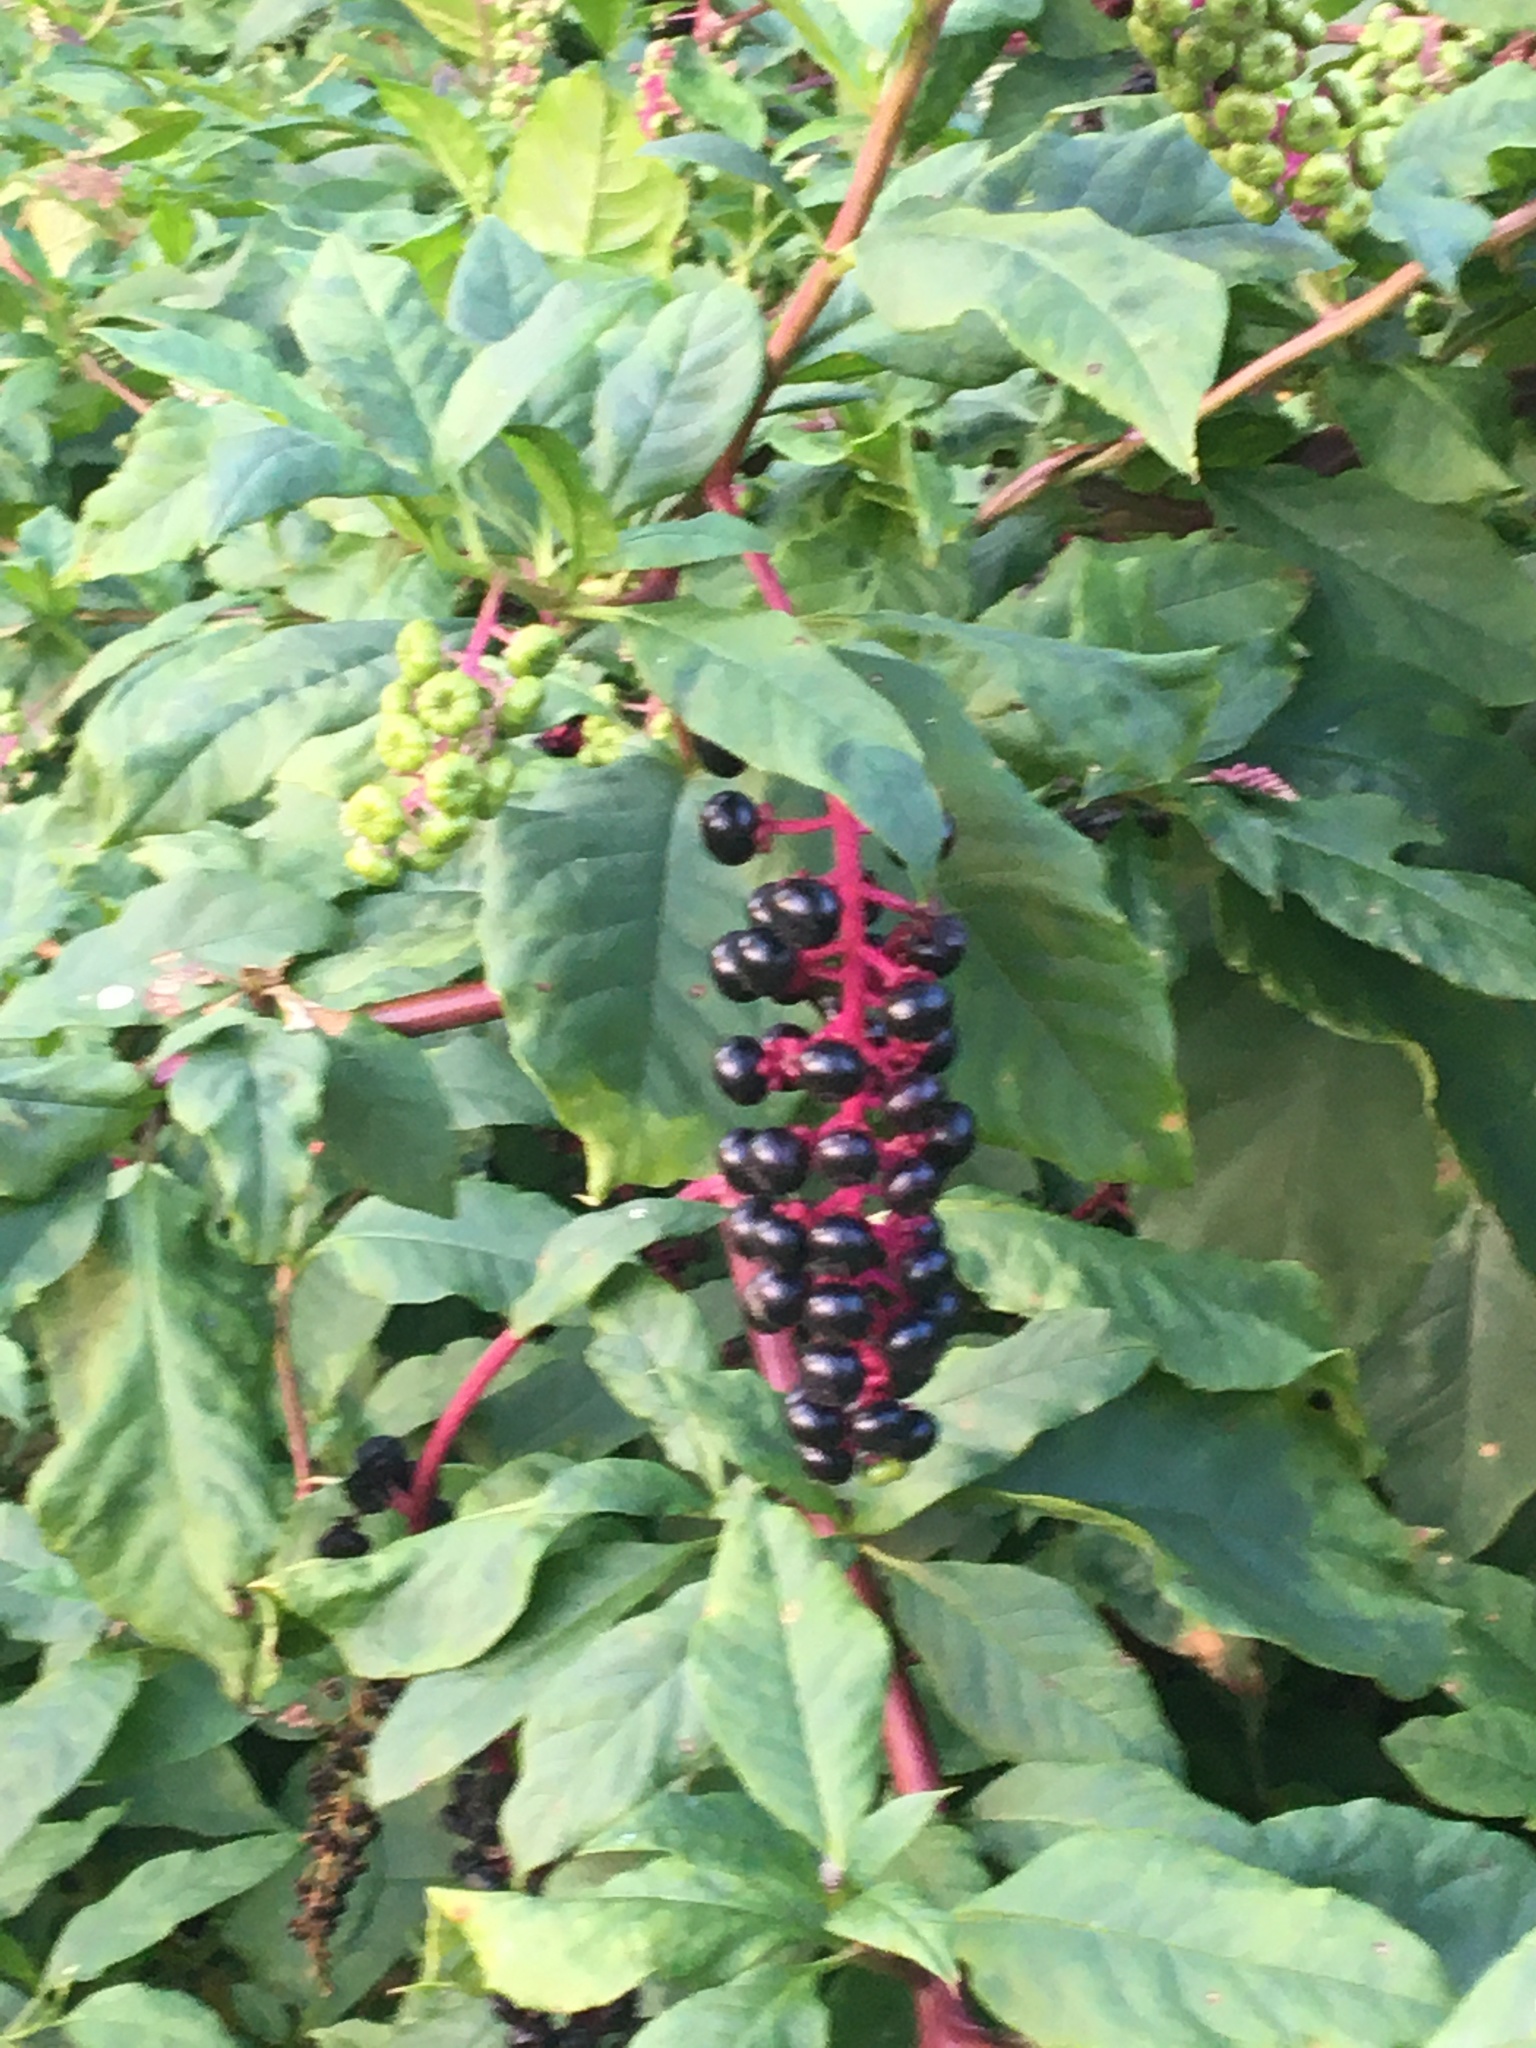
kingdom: Plantae
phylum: Tracheophyta
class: Magnoliopsida
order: Caryophyllales
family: Phytolaccaceae
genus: Phytolacca
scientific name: Phytolacca americana
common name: American pokeweed
